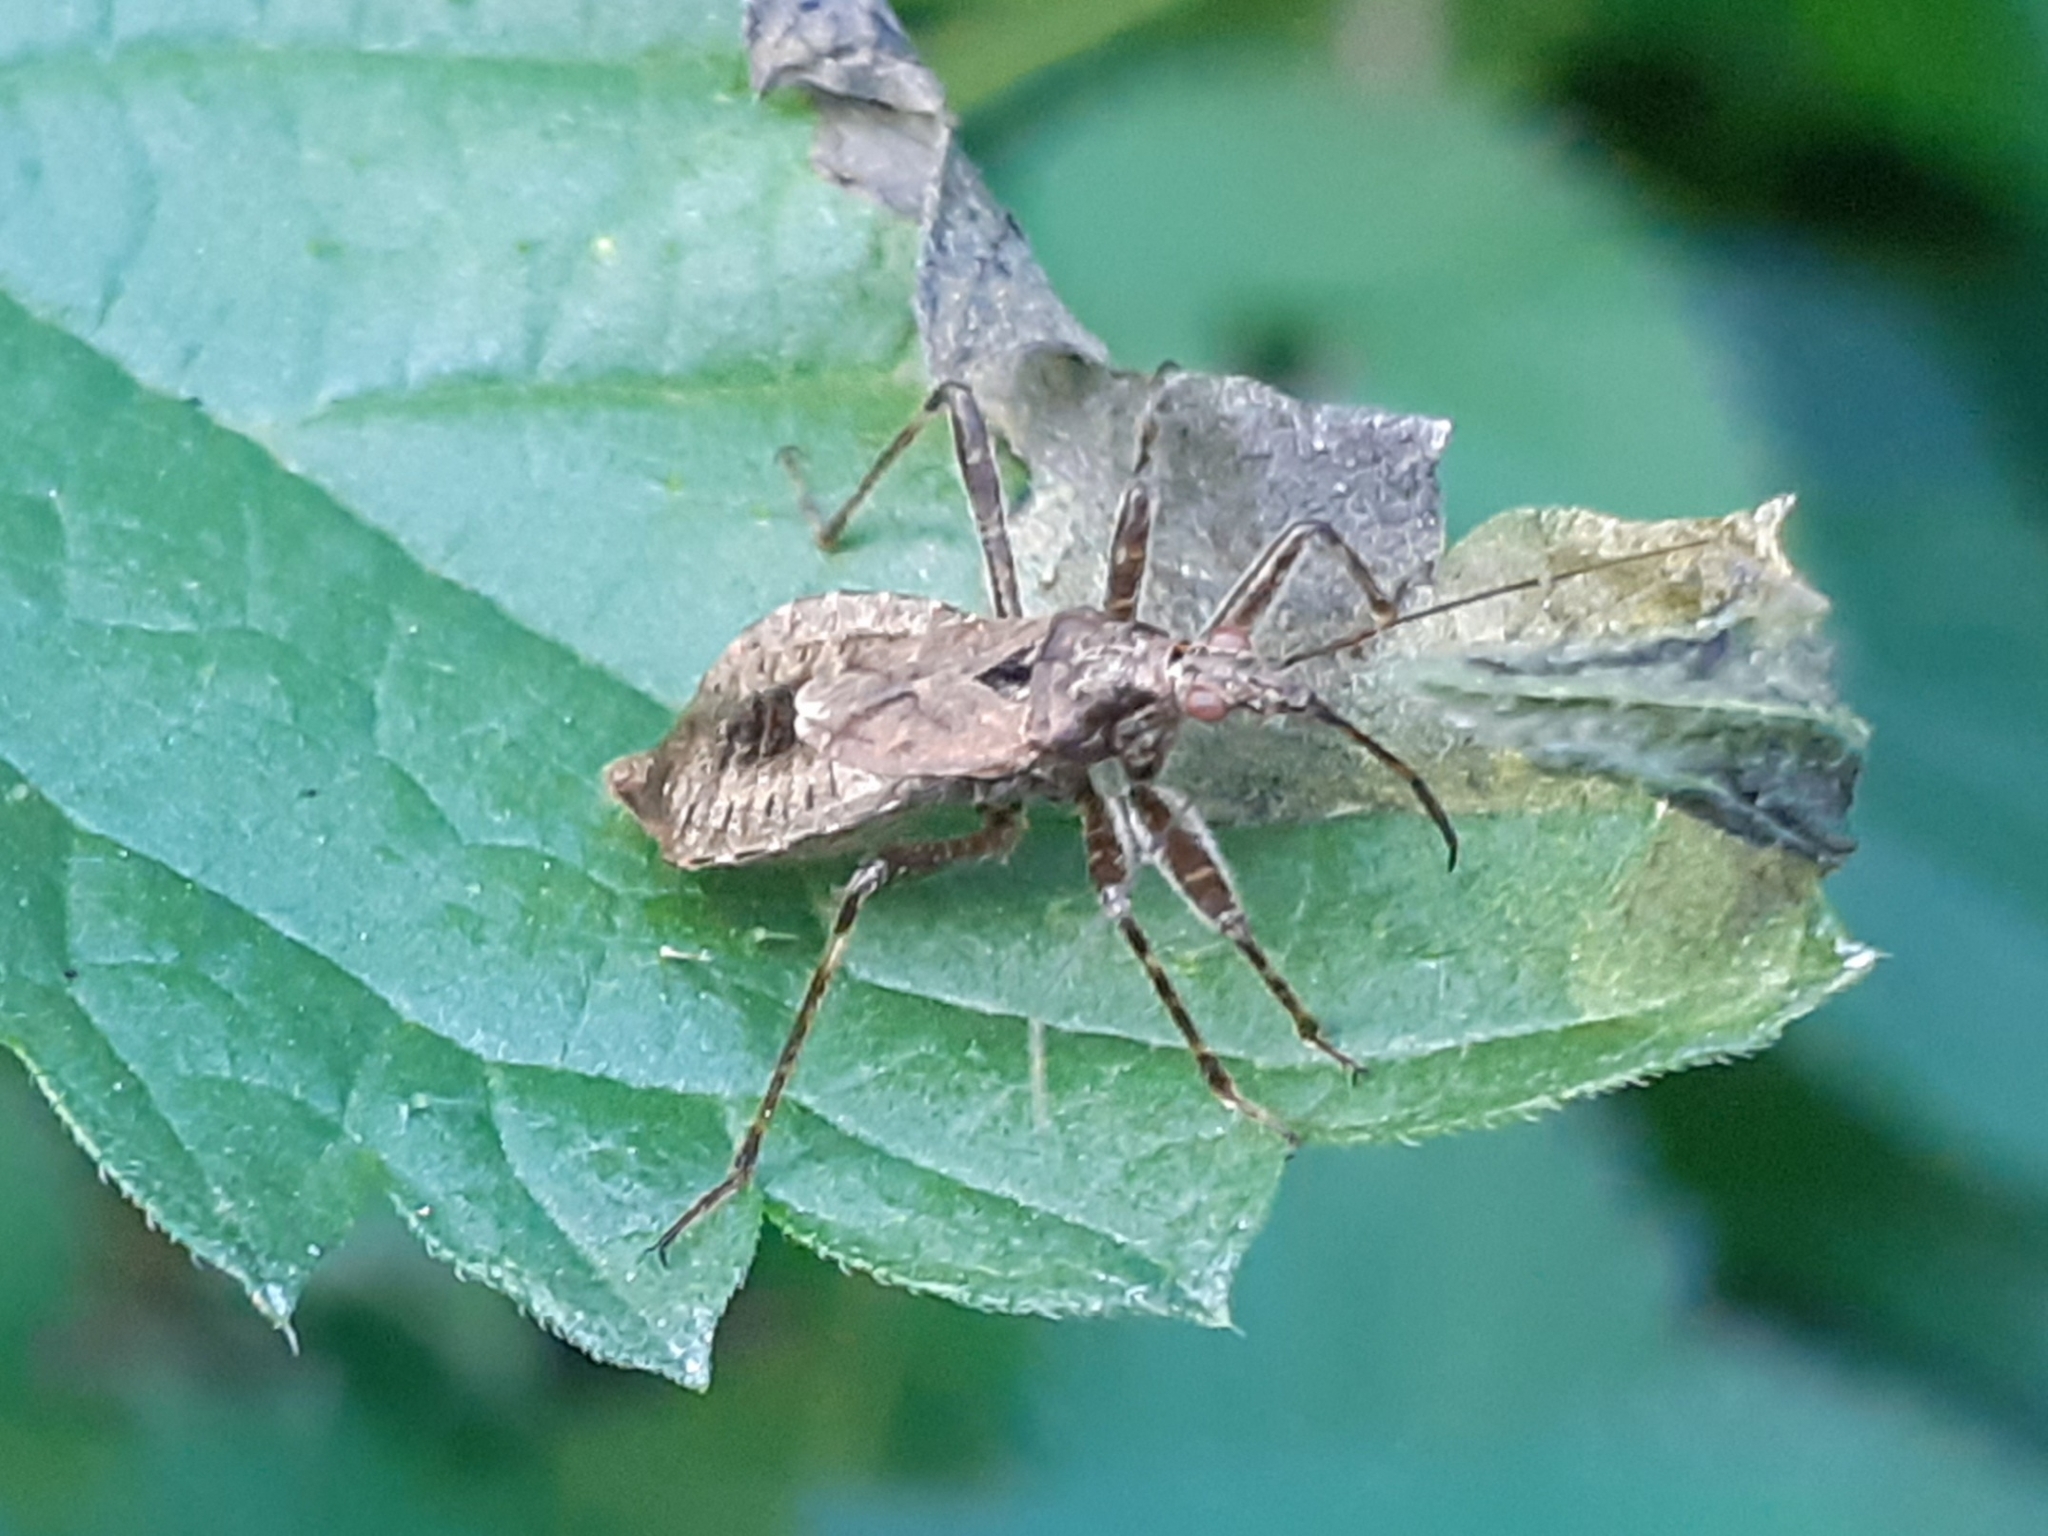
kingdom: Animalia
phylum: Arthropoda
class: Insecta
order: Hemiptera
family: Nabidae
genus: Himacerus
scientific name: Himacerus apterus
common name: Tree damsel bug
